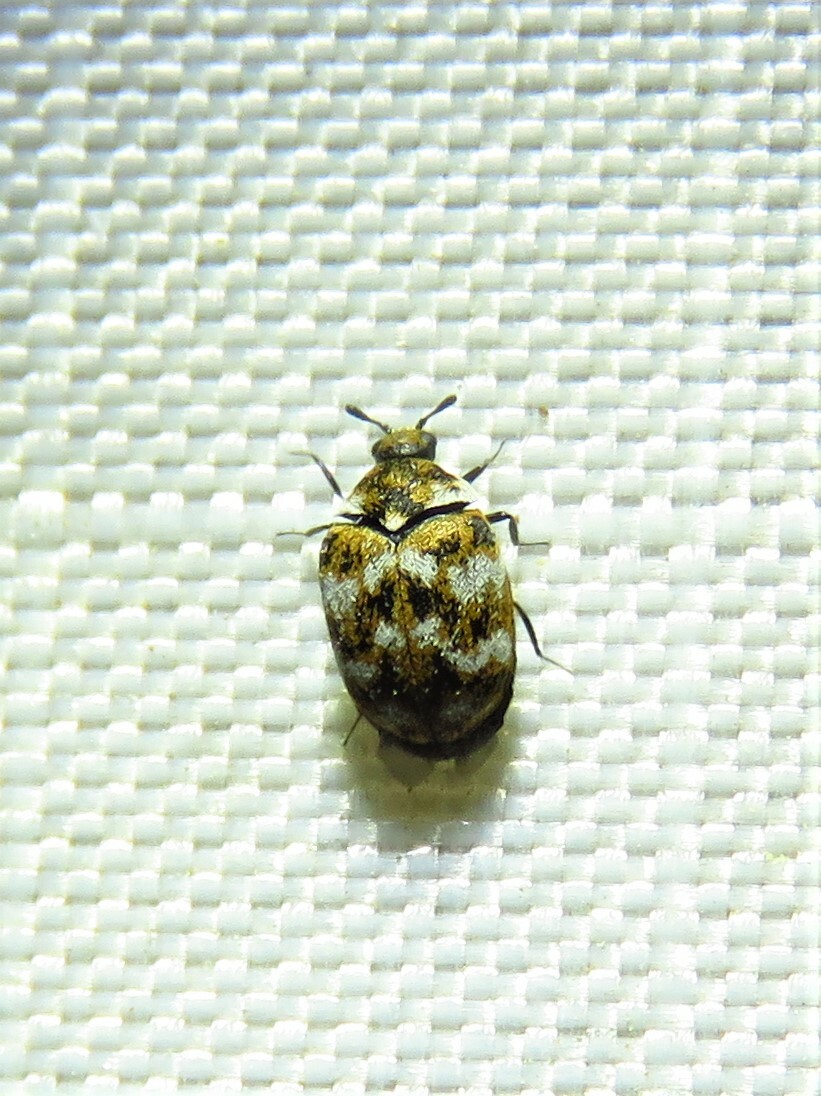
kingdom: Animalia
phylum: Arthropoda
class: Insecta
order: Coleoptera
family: Dermestidae
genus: Anthrenus
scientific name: Anthrenus verbasci
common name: Varied carpet beetle
